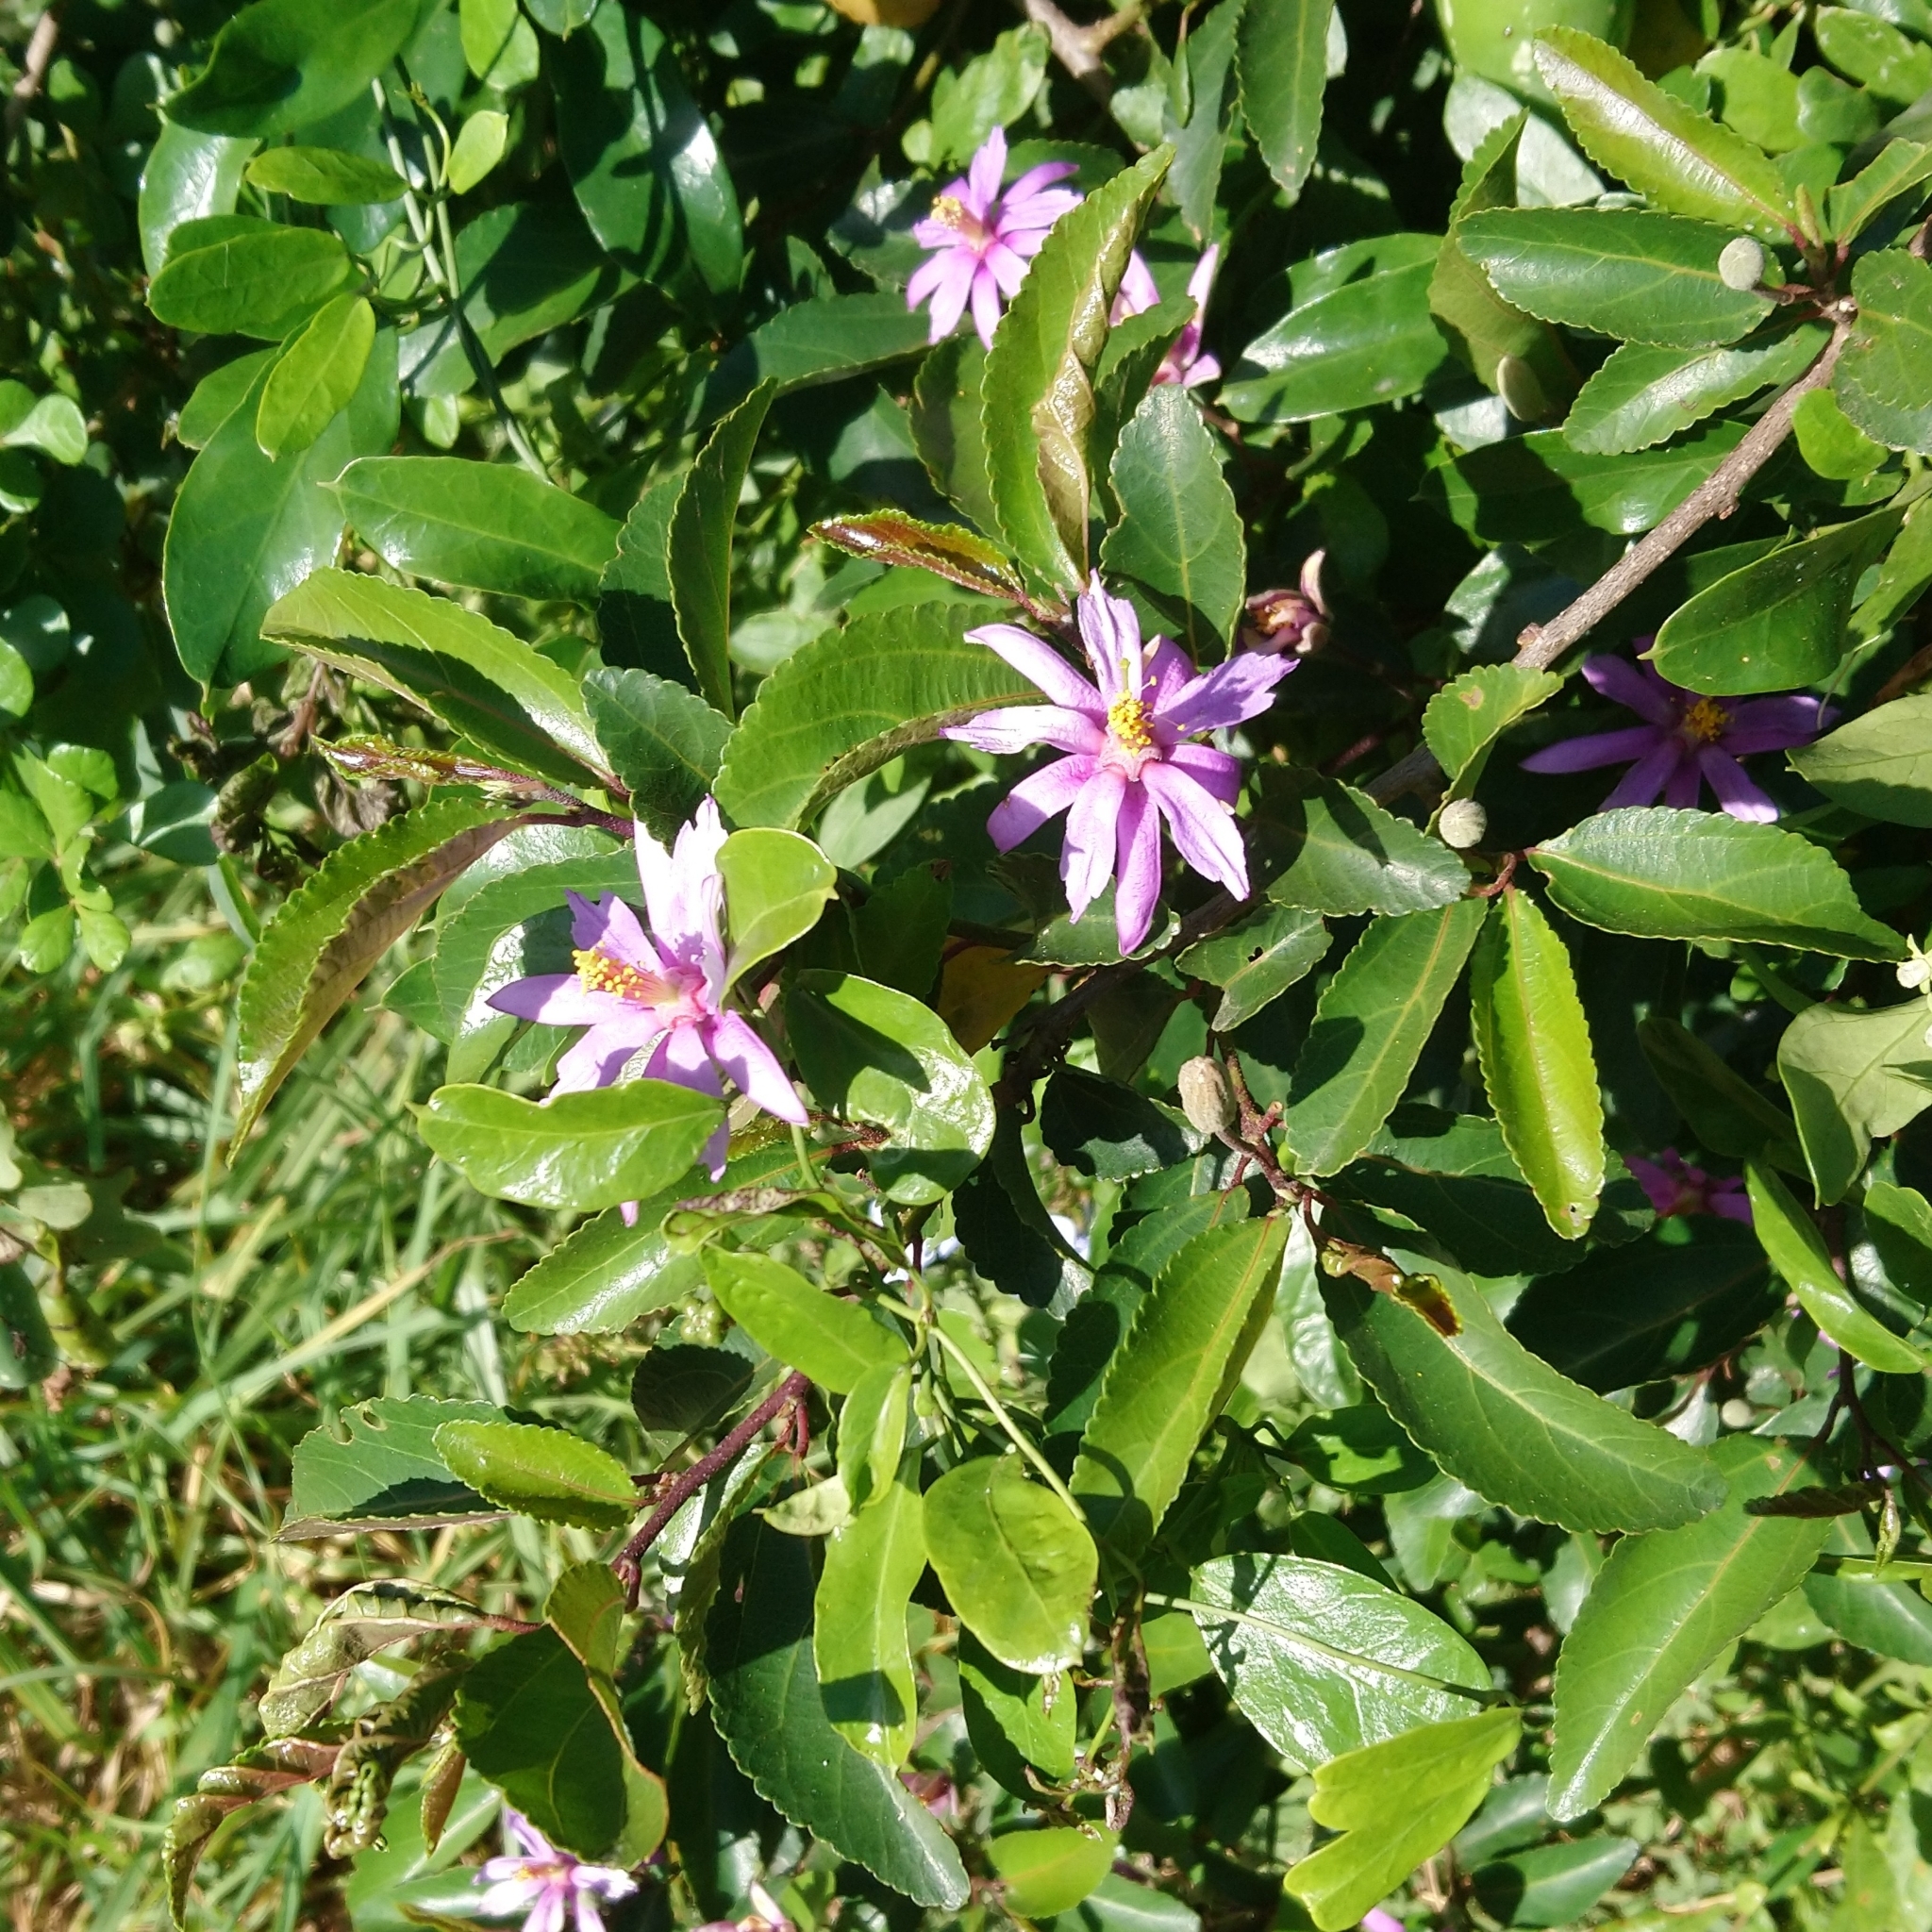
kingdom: Plantae
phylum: Tracheophyta
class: Magnoliopsida
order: Malvales
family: Malvaceae
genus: Grewia
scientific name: Grewia occidentalis
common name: Crossberry
